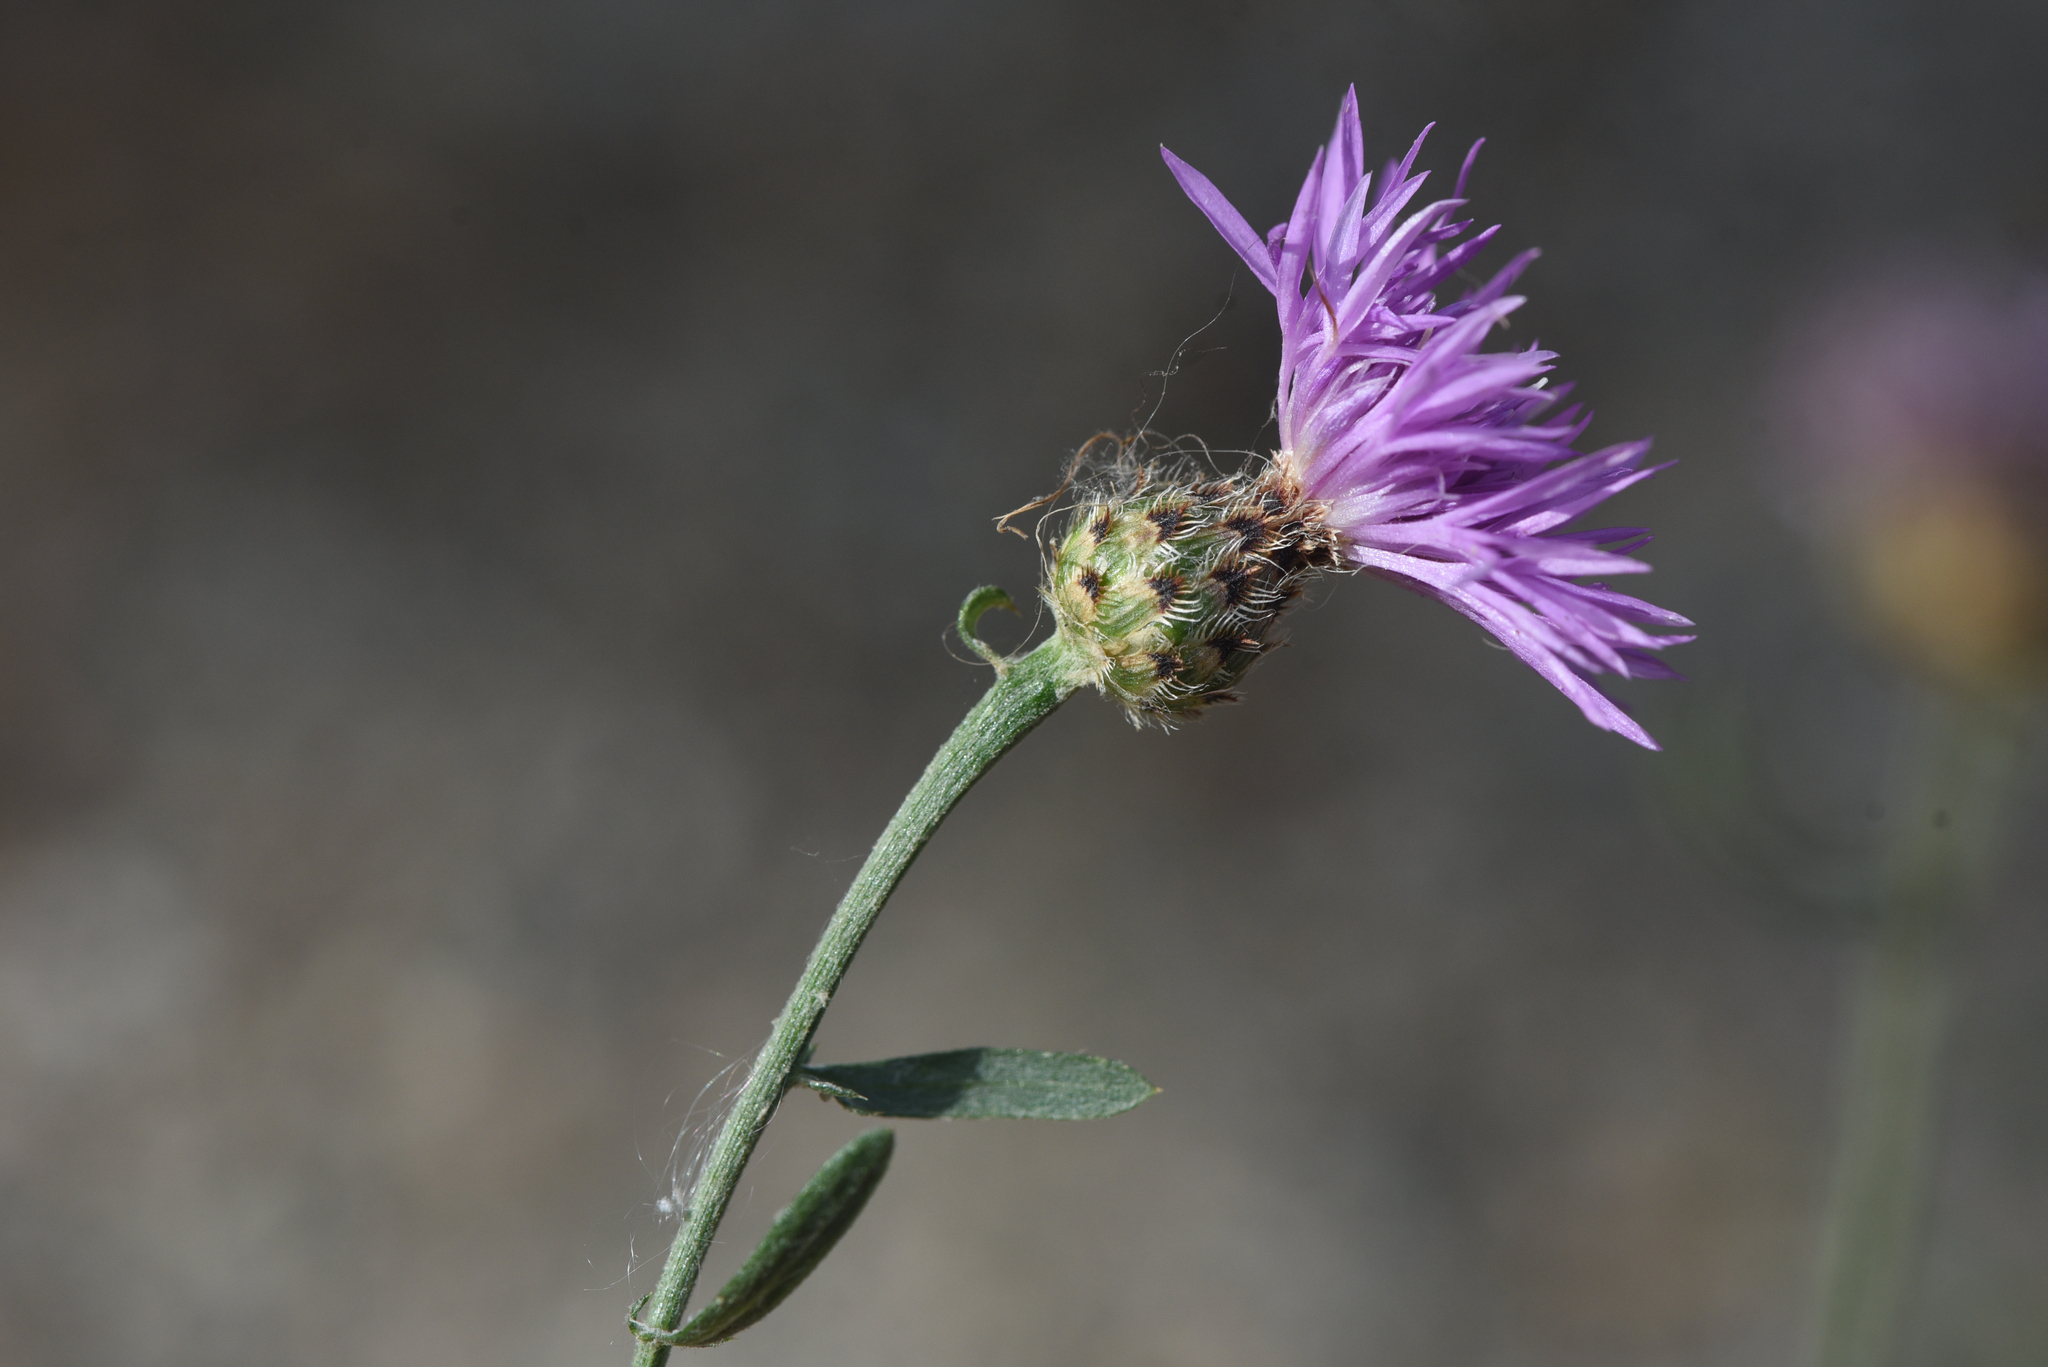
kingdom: Plantae
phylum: Tracheophyta
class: Magnoliopsida
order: Asterales
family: Asteraceae
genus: Centaurea
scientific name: Centaurea stoebe
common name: Spotted knapweed
